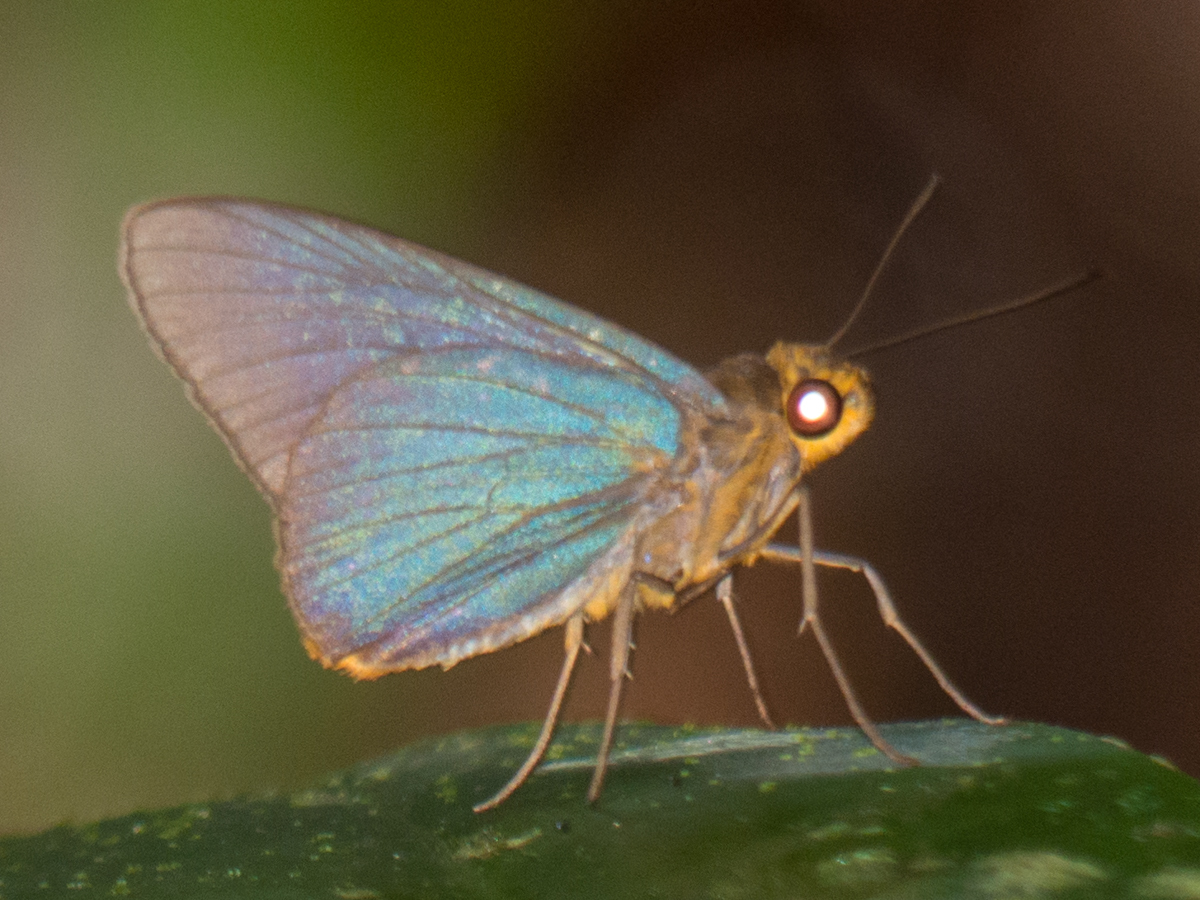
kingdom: Animalia
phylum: Arthropoda
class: Insecta
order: Lepidoptera
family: Hesperiidae
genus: Pirdana
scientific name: Pirdana distanti
